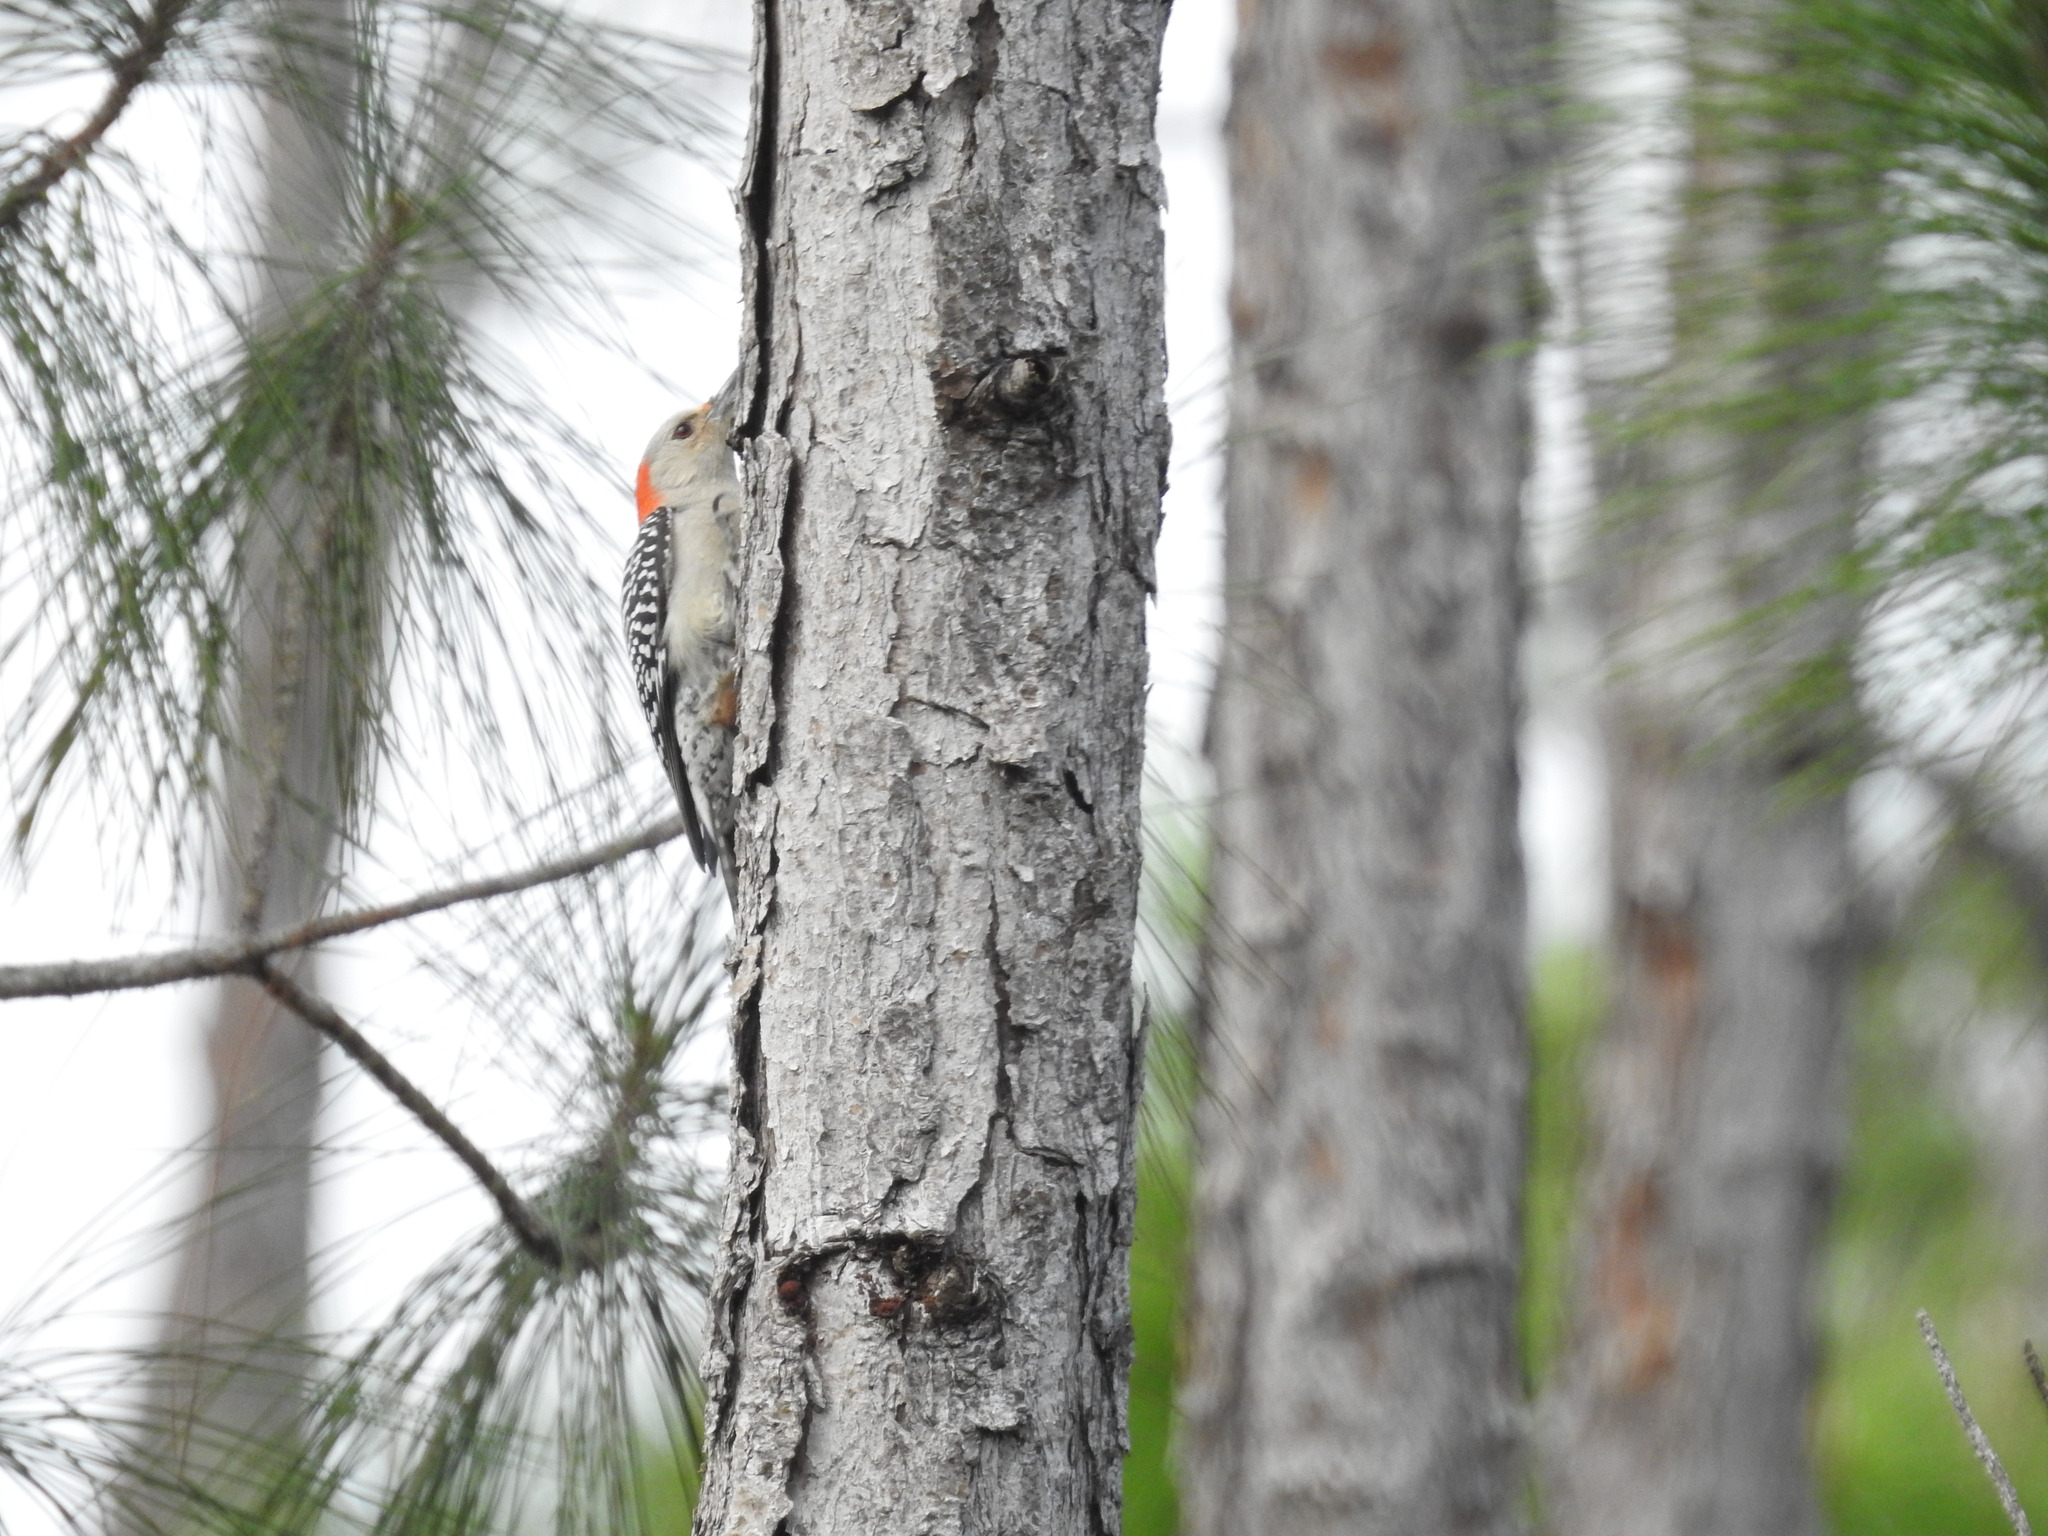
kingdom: Animalia
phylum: Chordata
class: Aves
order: Piciformes
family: Picidae
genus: Melanerpes
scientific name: Melanerpes carolinus
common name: Red-bellied woodpecker
